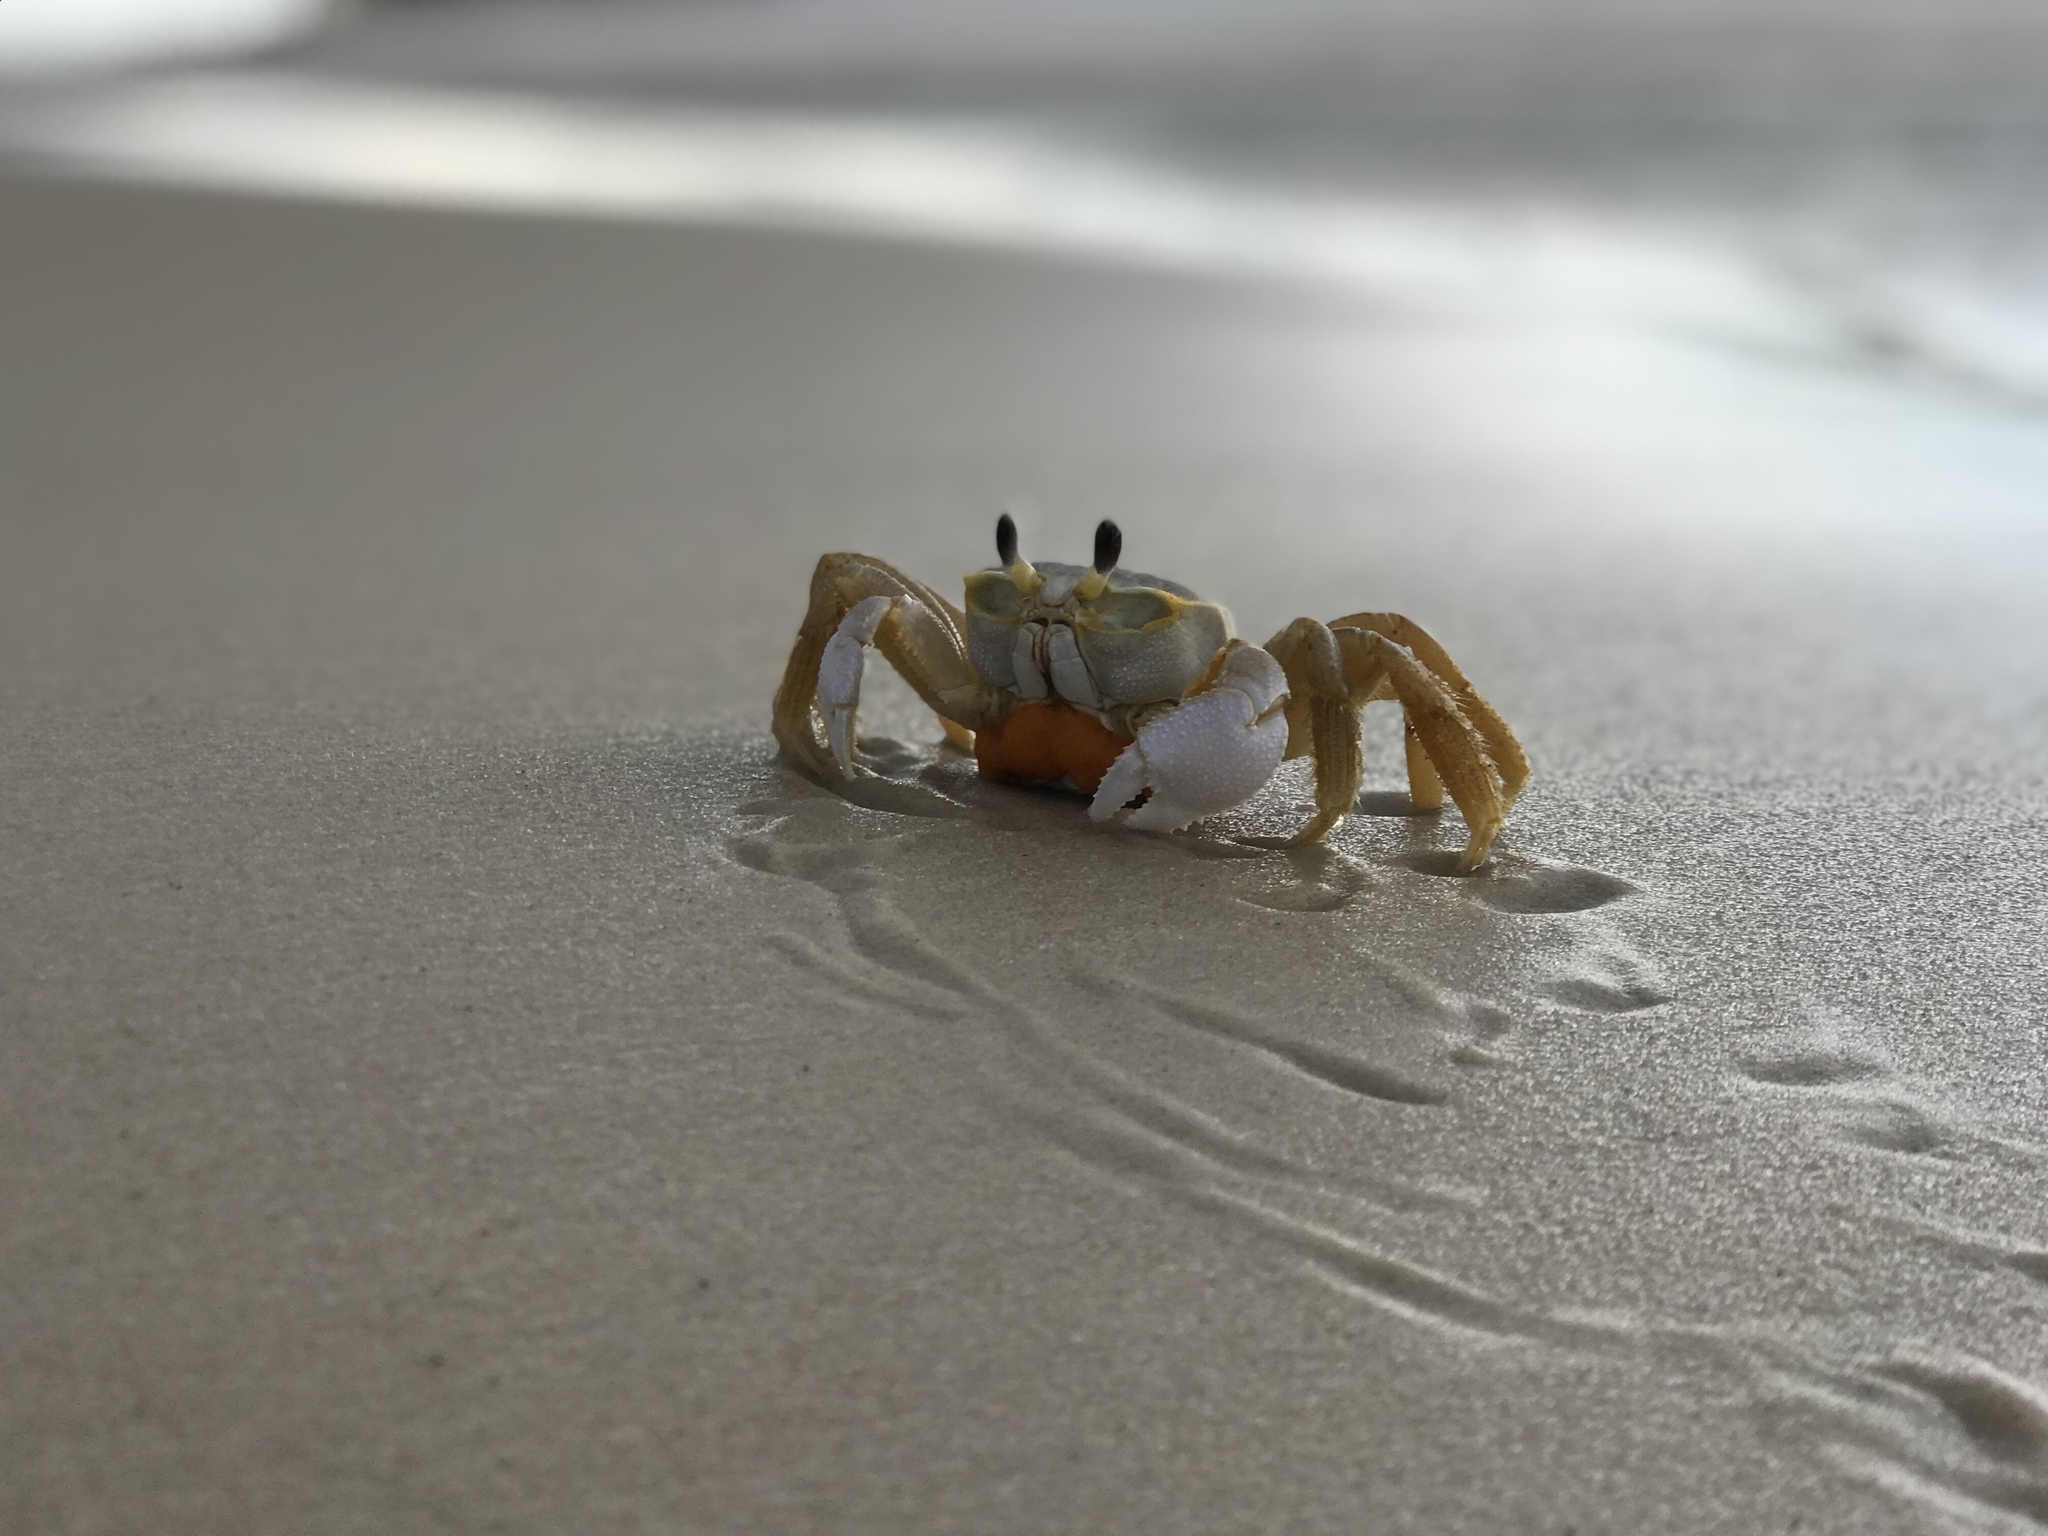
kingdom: Animalia
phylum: Arthropoda
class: Malacostraca
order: Decapoda
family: Ocypodidae
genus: Ocypode
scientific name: Ocypode quadrata
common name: Ghost crab
